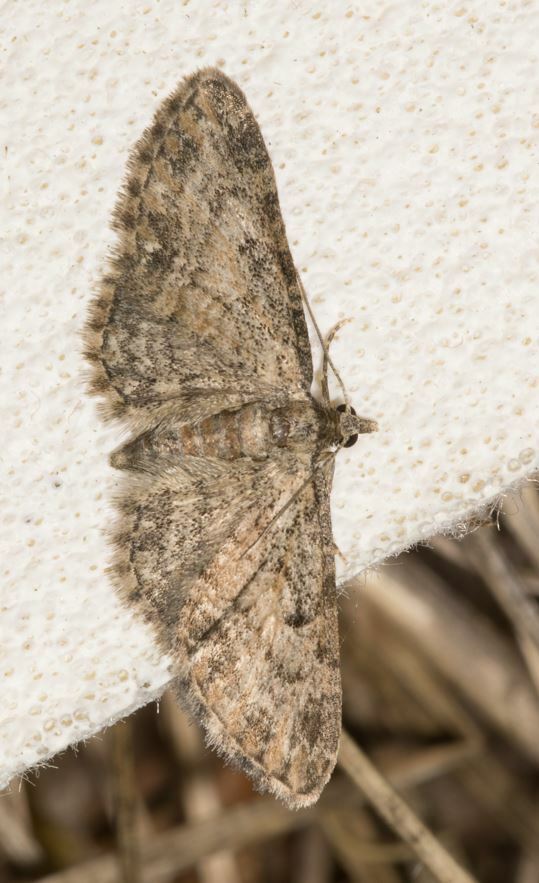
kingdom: Animalia
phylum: Arthropoda
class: Insecta
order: Lepidoptera
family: Geometridae
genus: Eupithecia
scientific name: Eupithecia inturbata
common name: Maple pug
